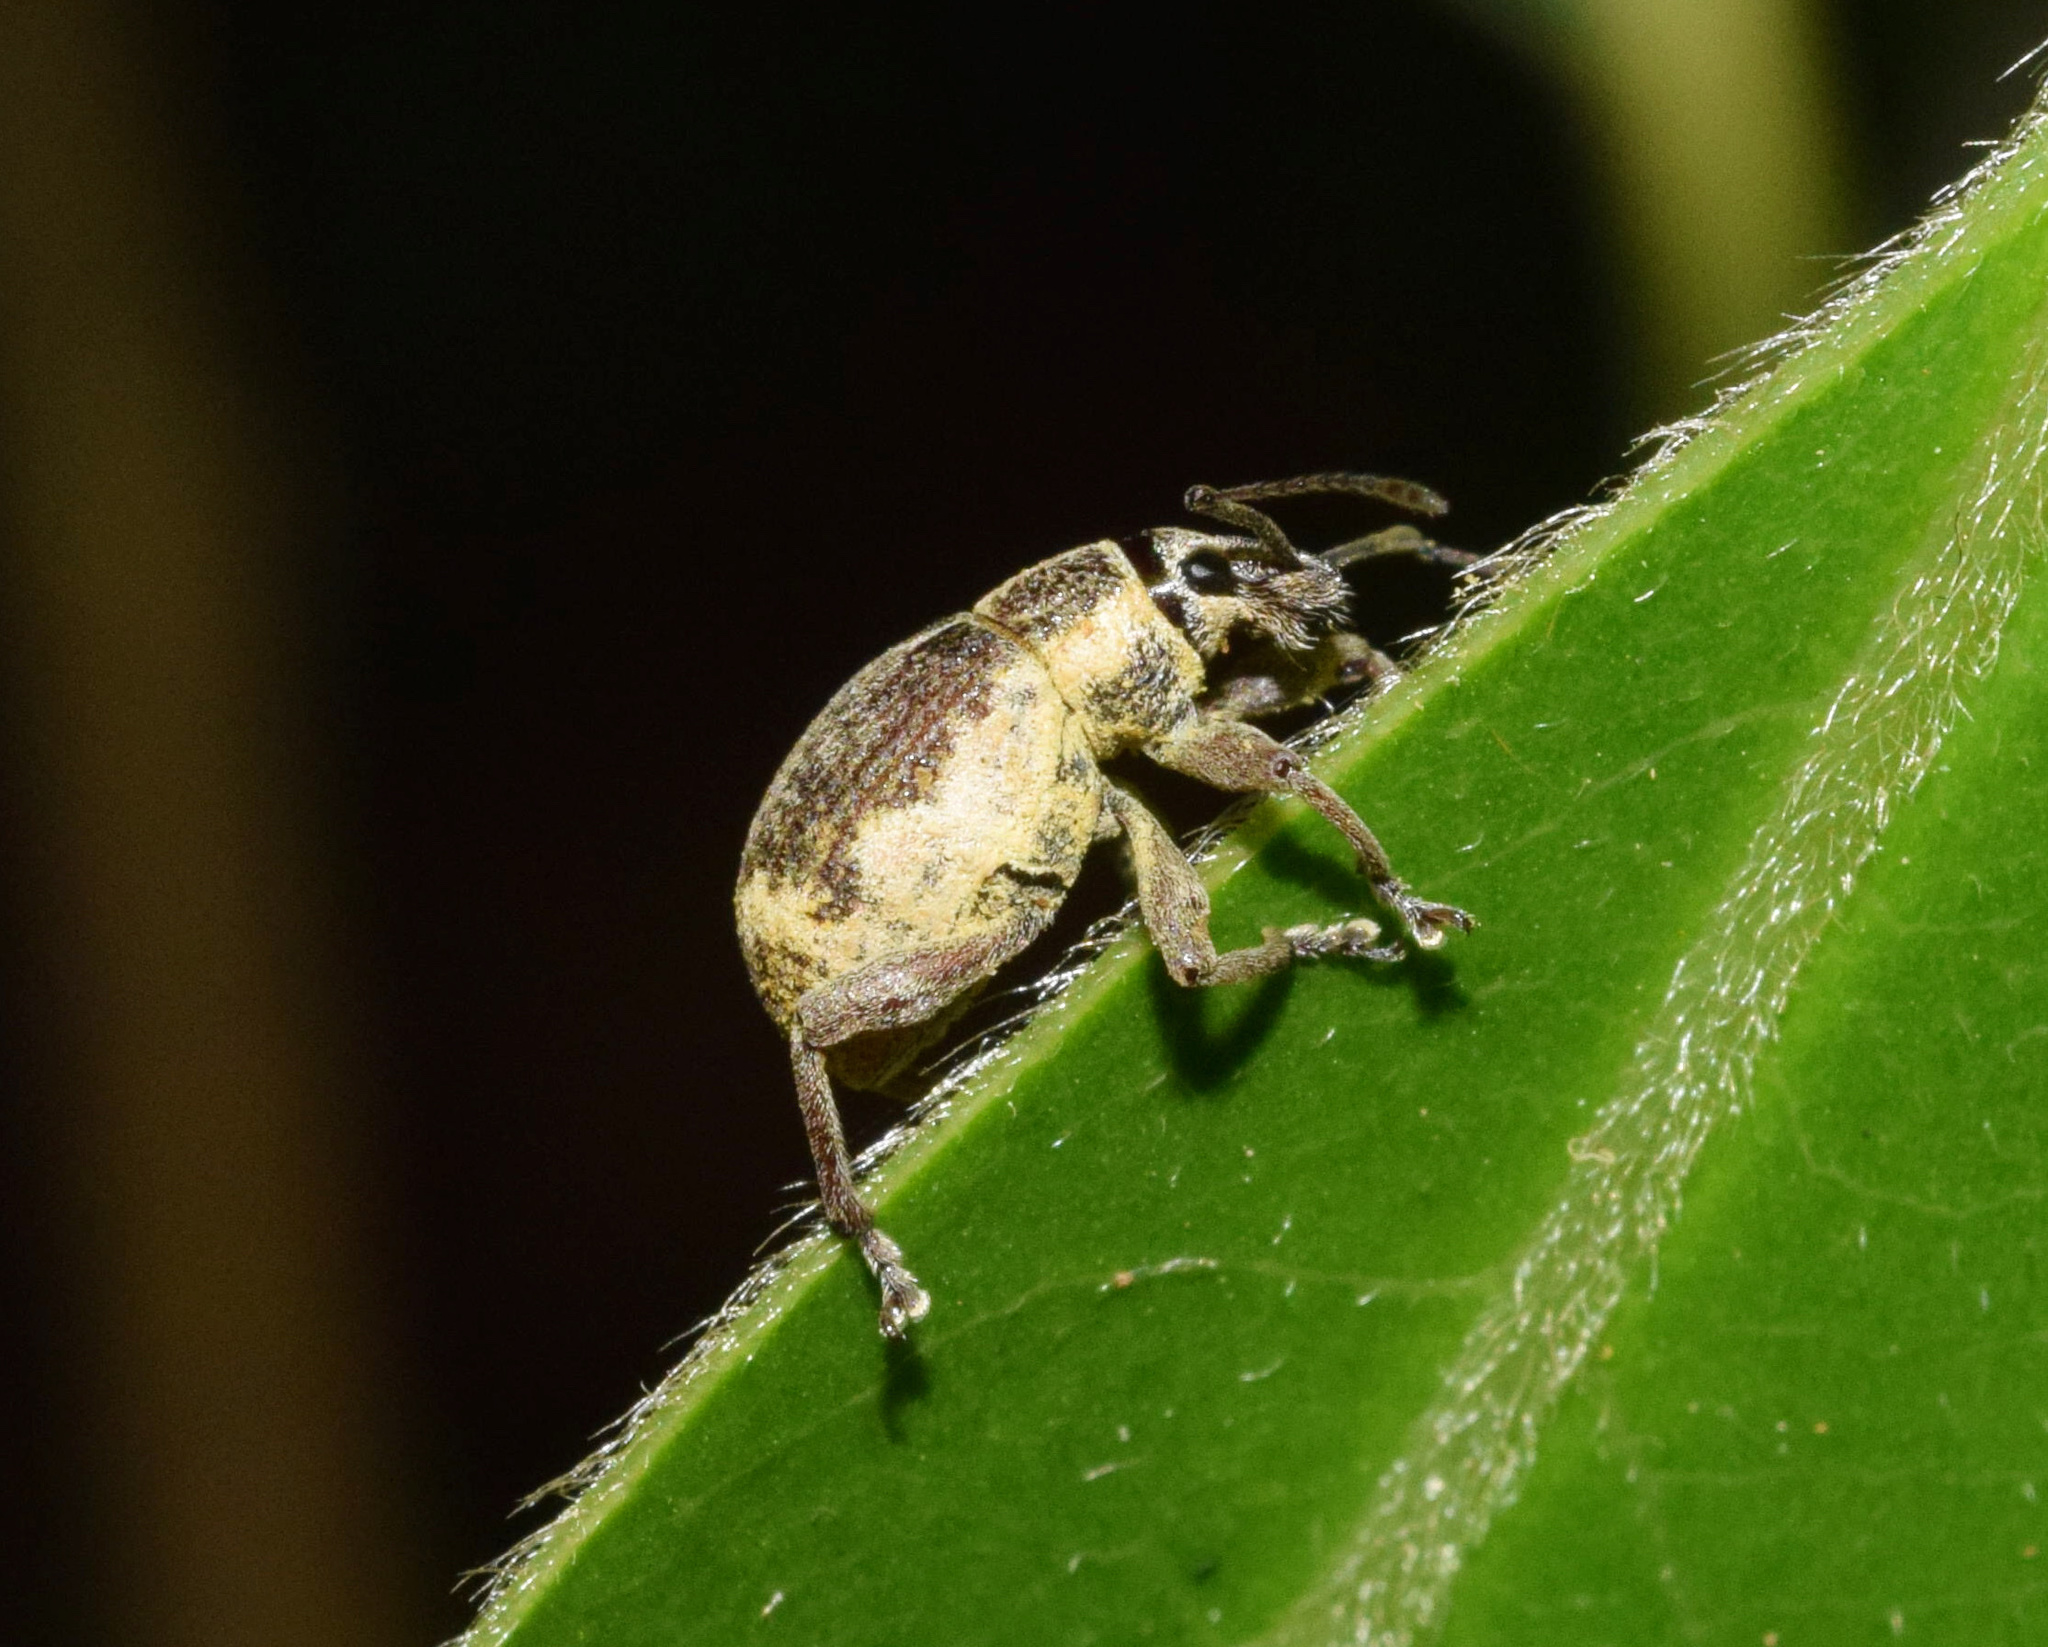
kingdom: Animalia
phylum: Arthropoda
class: Insecta
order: Coleoptera
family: Curculionidae
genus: Sciobius
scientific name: Sciobius pullus
